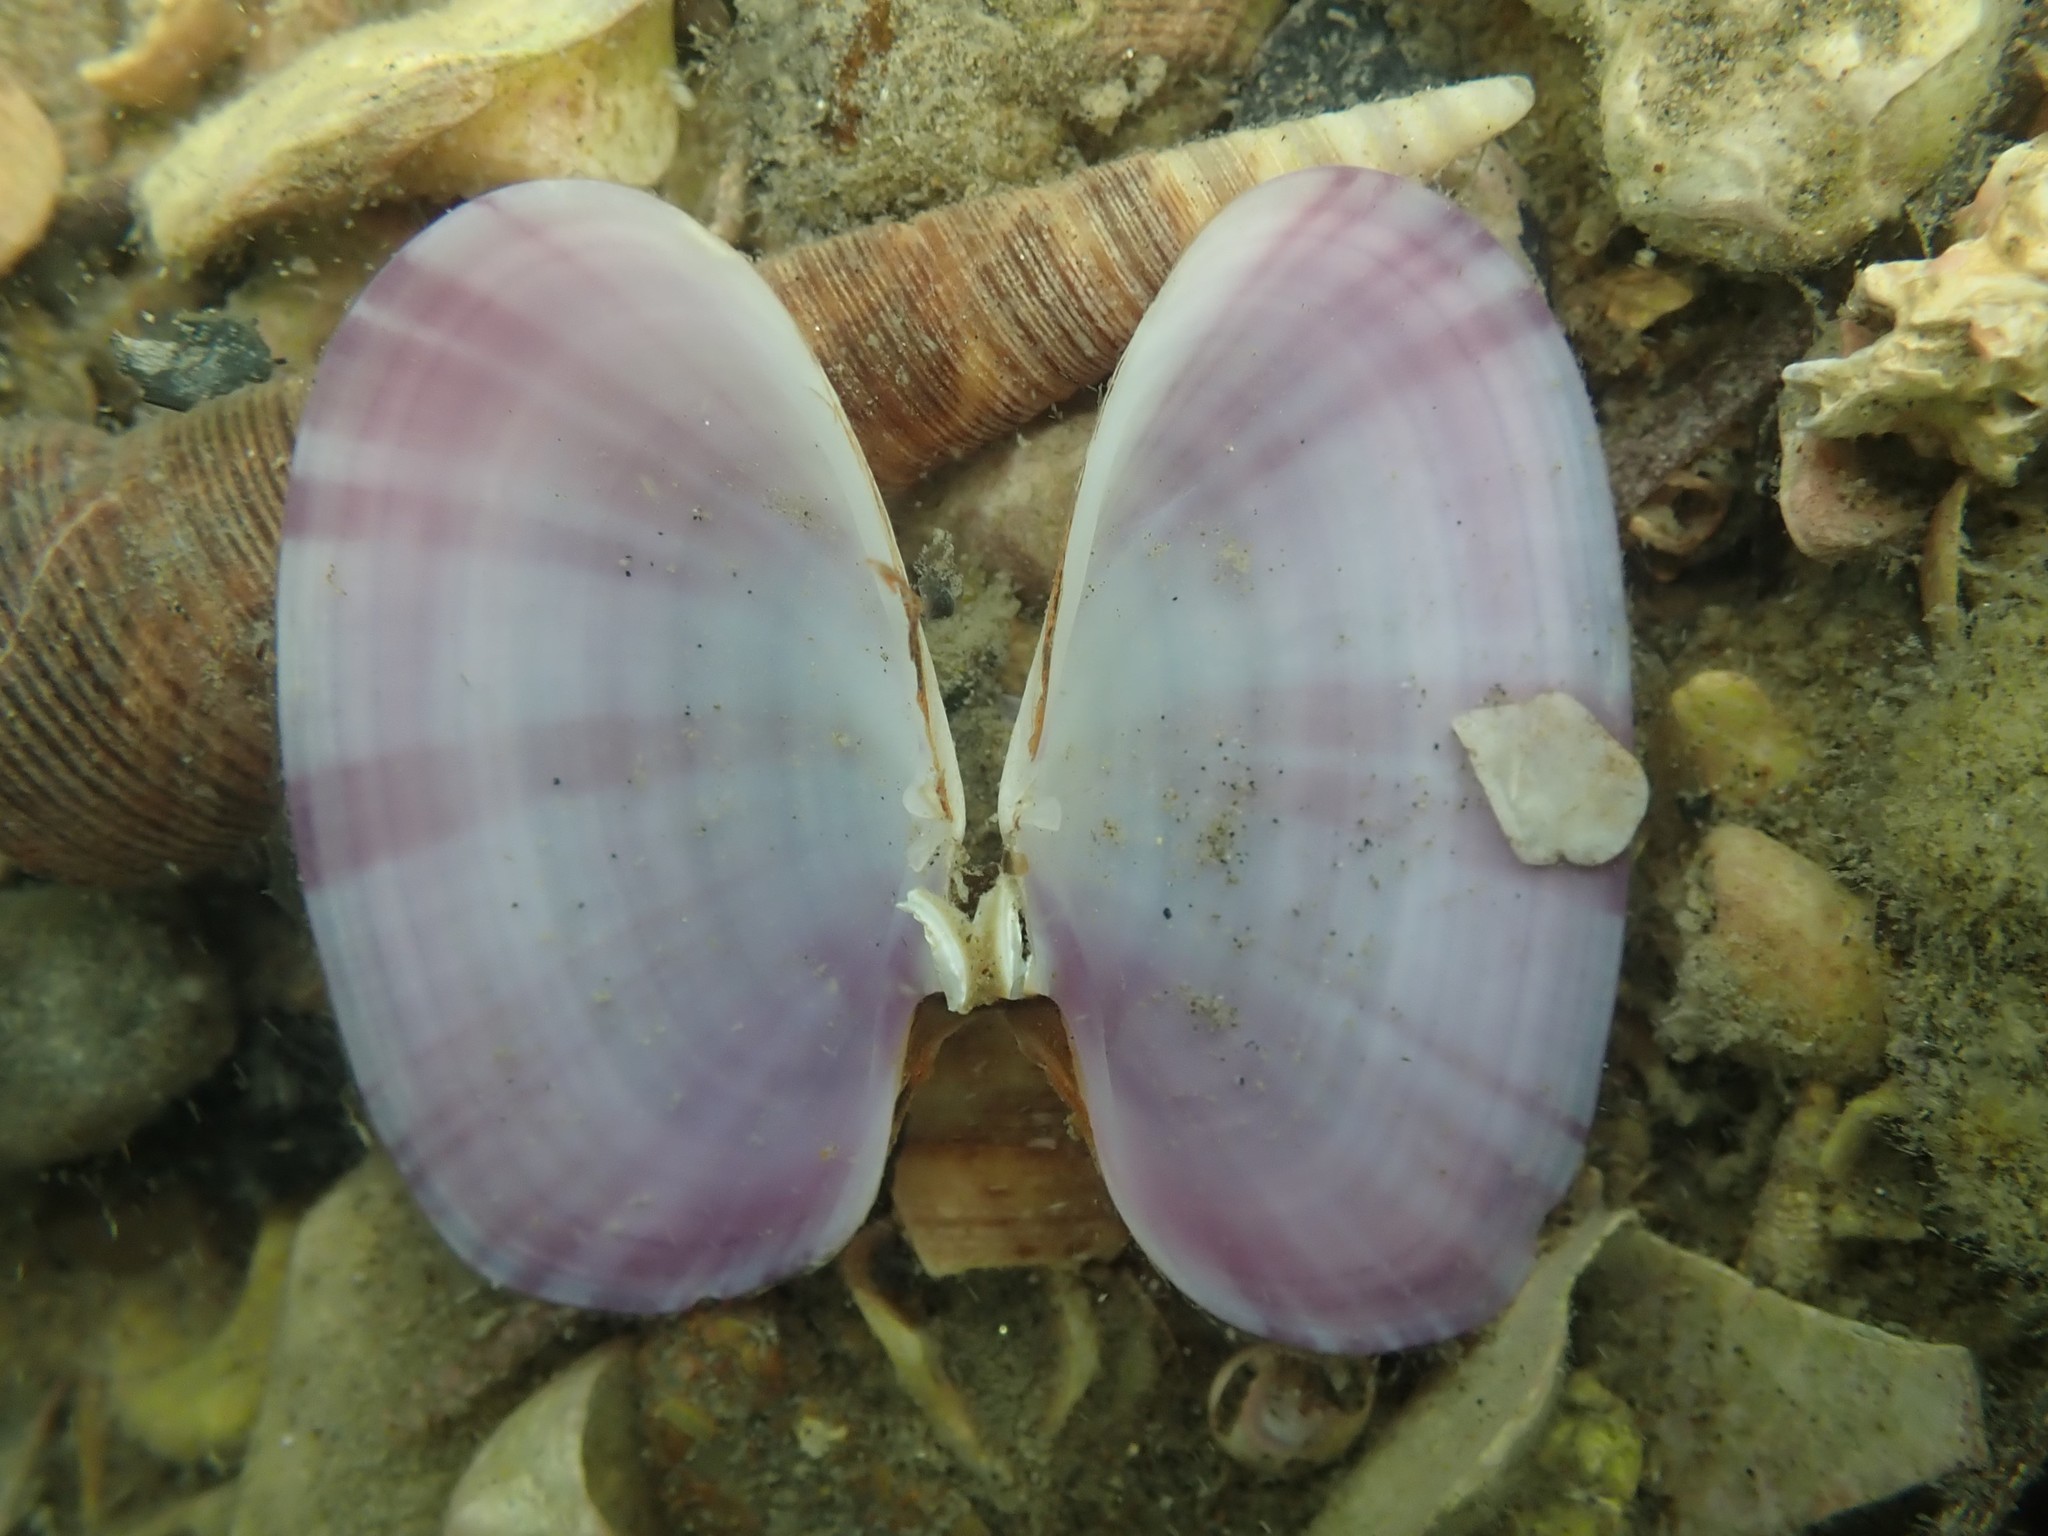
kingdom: Animalia
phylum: Mollusca
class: Bivalvia
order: Cardiida
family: Psammobiidae
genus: Gari
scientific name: Gari stangeri
